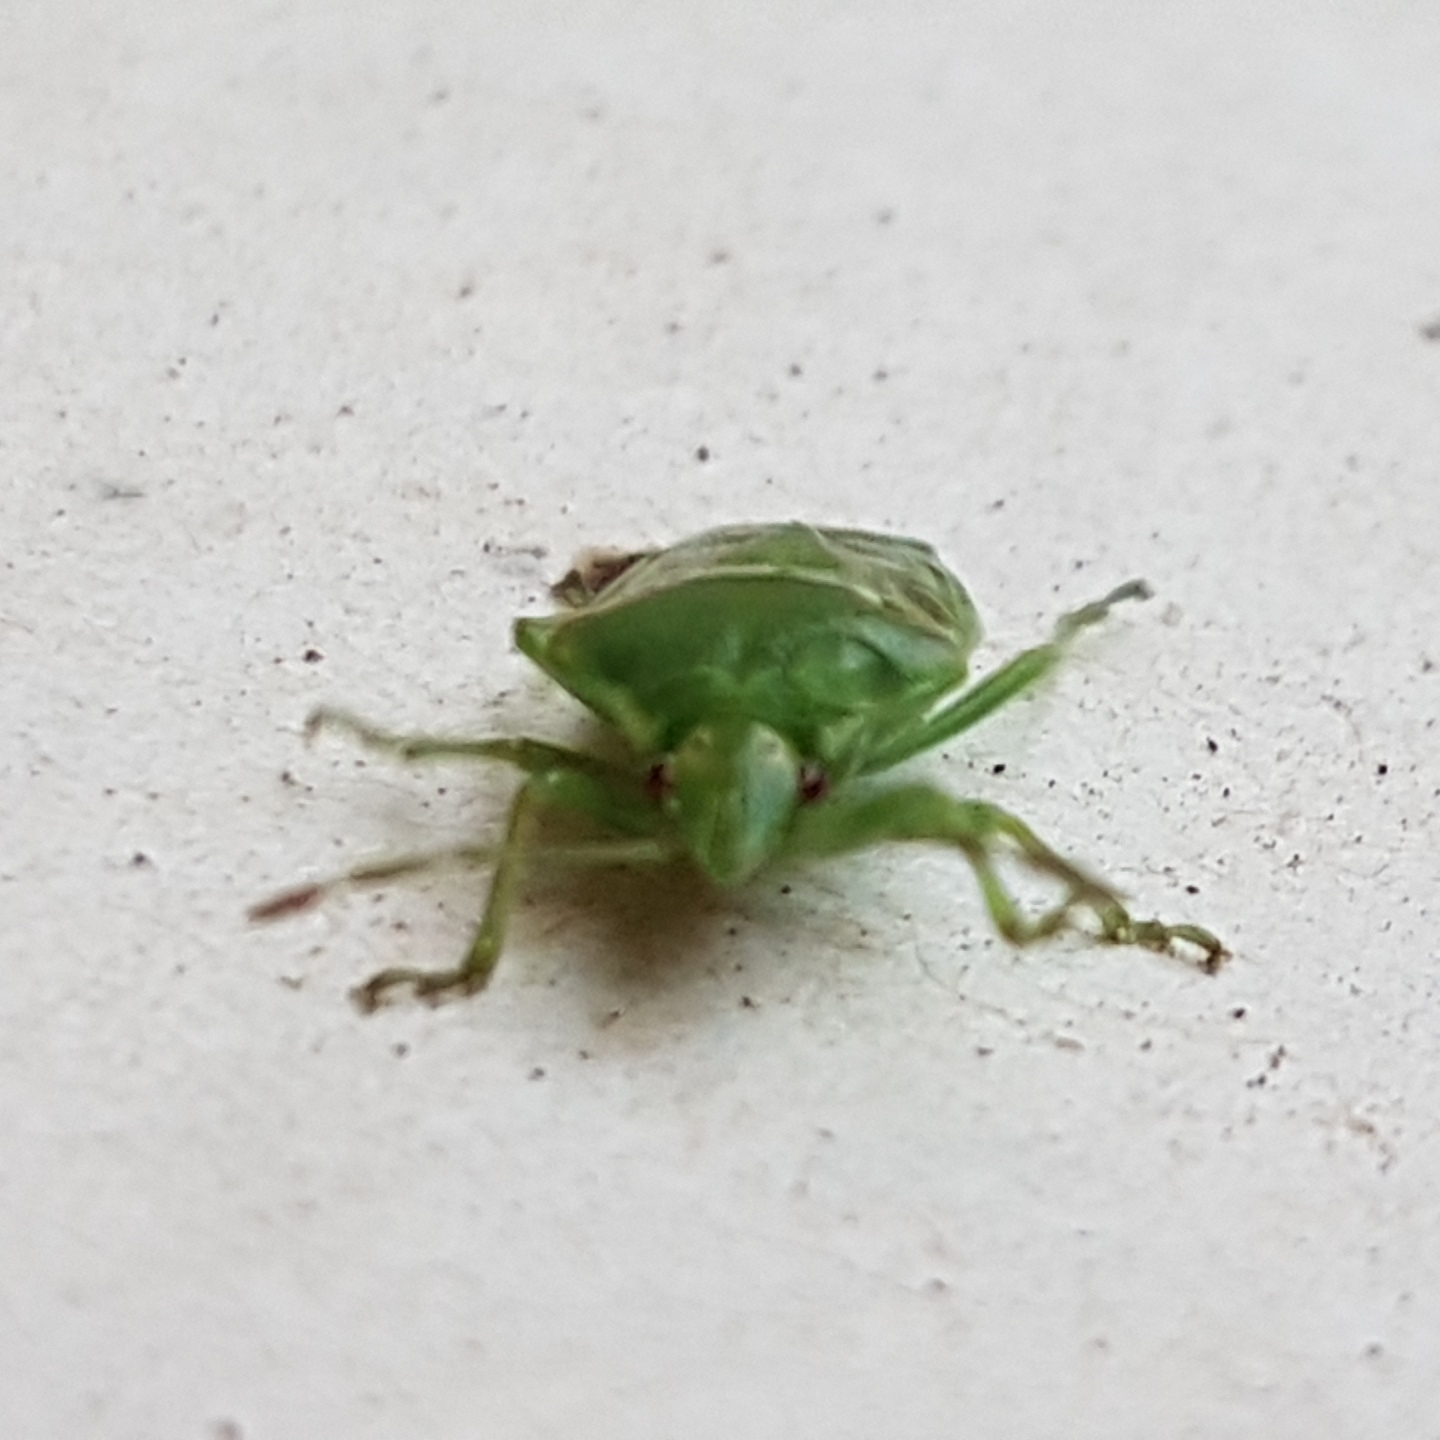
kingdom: Animalia
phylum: Arthropoda
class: Insecta
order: Hemiptera
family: Acanthosomatidae
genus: Cyphostethus
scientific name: Cyphostethus tristriatus
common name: Juniper shieldbug
